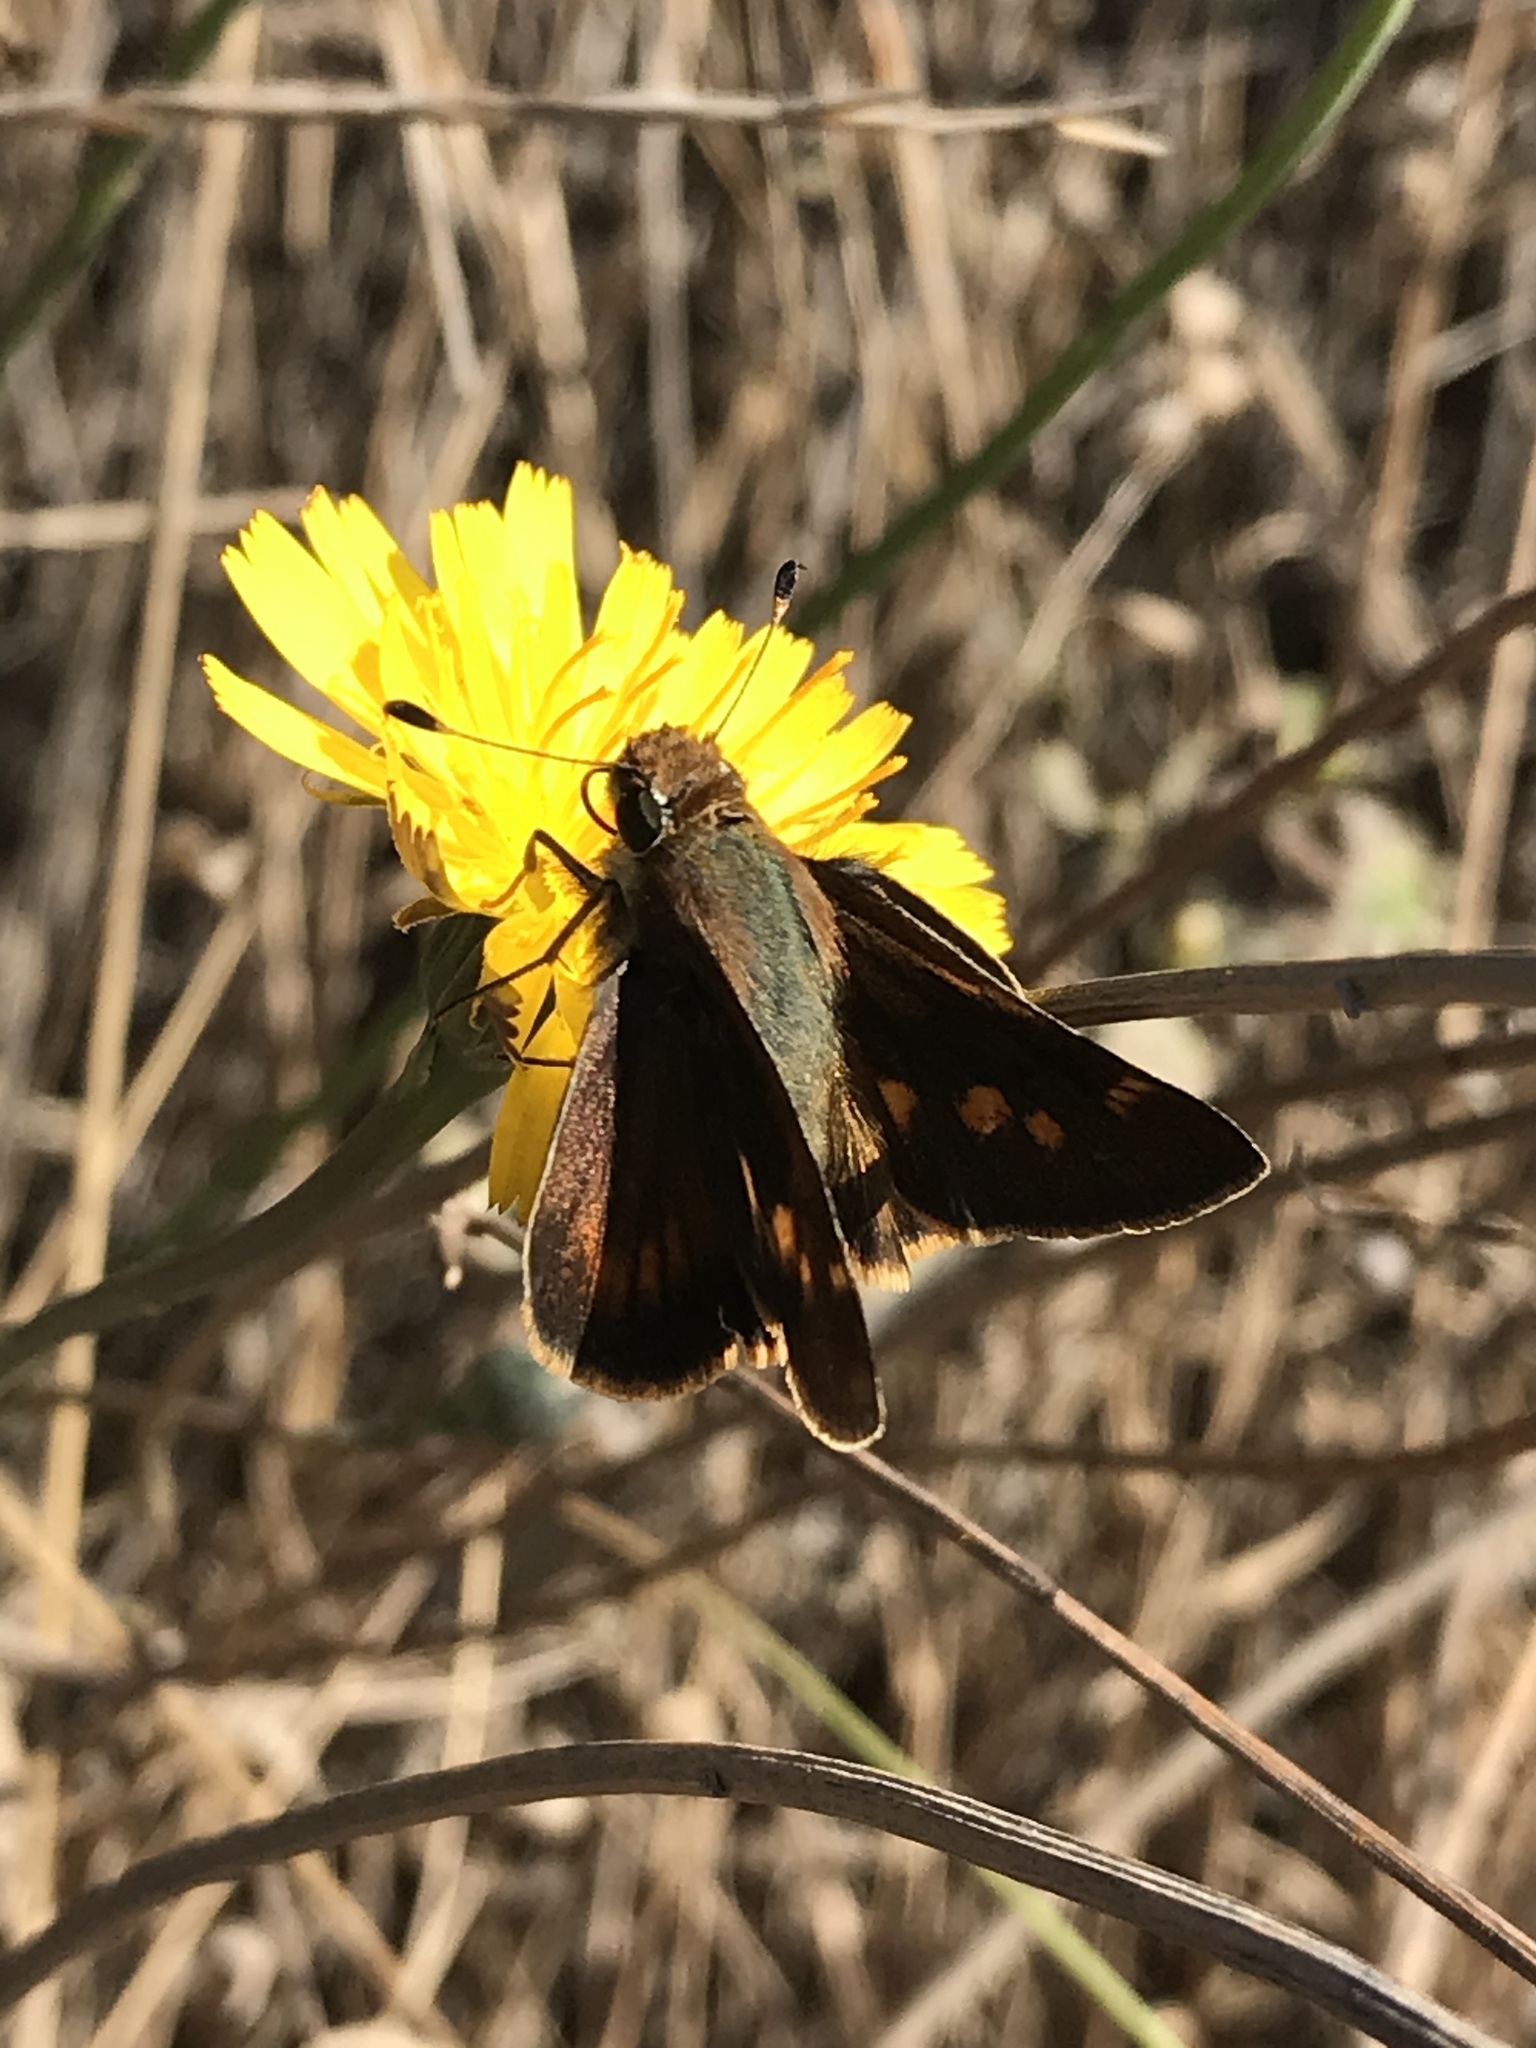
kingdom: Animalia
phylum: Arthropoda
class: Insecta
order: Lepidoptera
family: Hesperiidae
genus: Lon
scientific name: Lon melane
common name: Umber skipper
